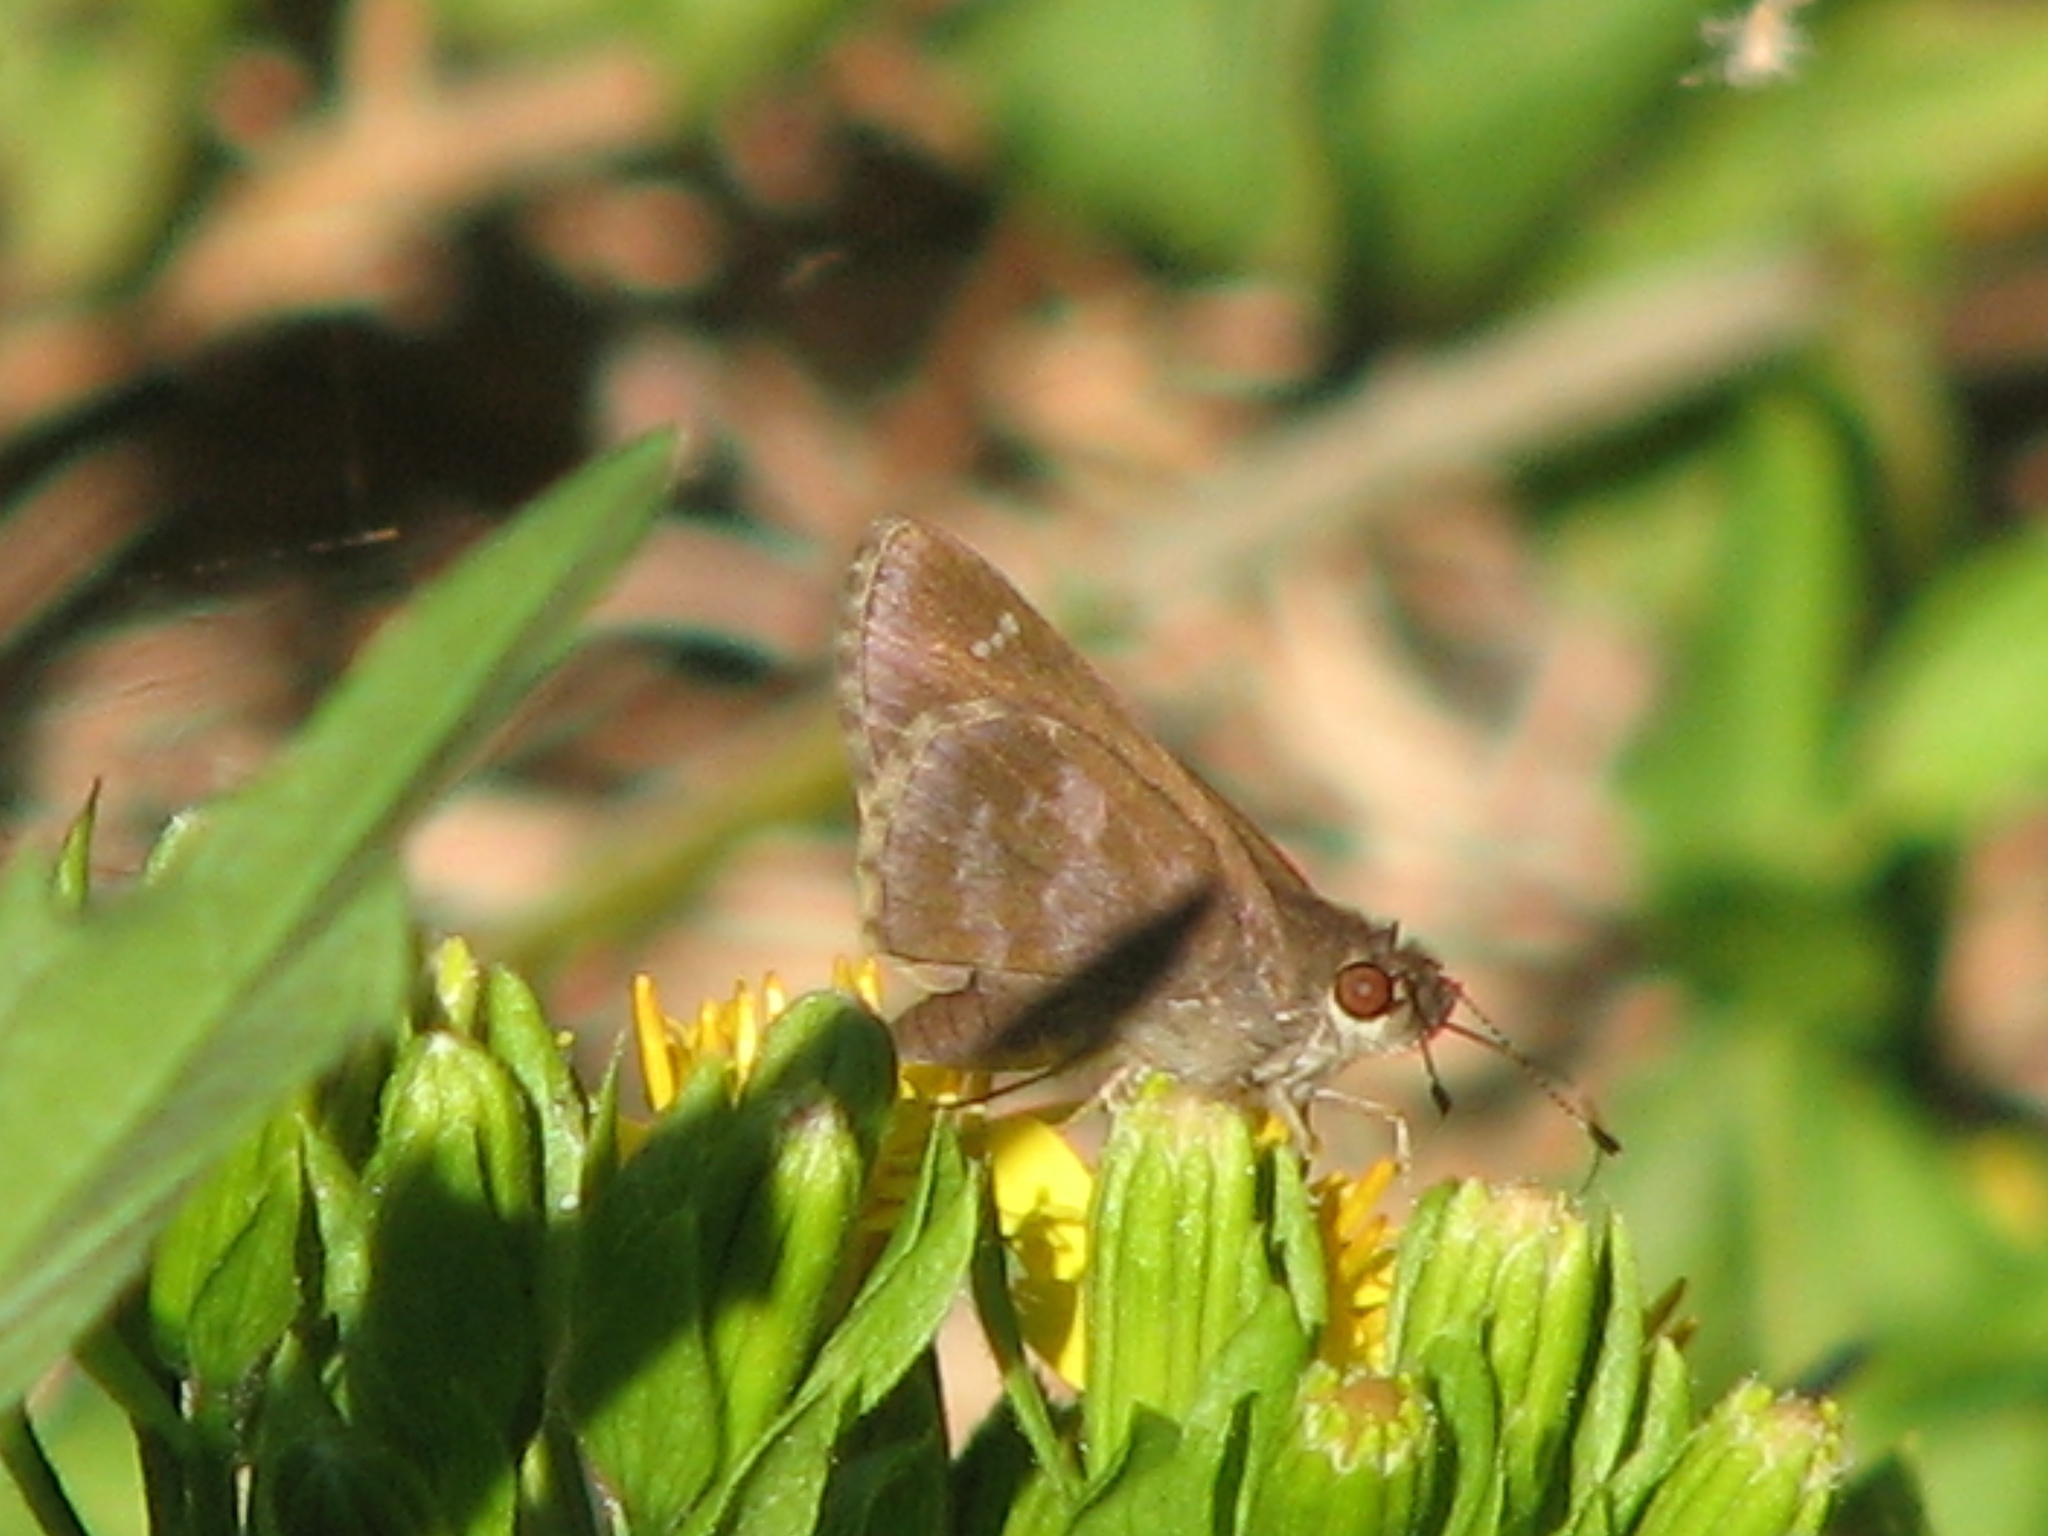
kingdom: Animalia
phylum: Arthropoda
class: Insecta
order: Lepidoptera
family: Hesperiidae
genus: Cymaenes
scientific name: Cymaenes
